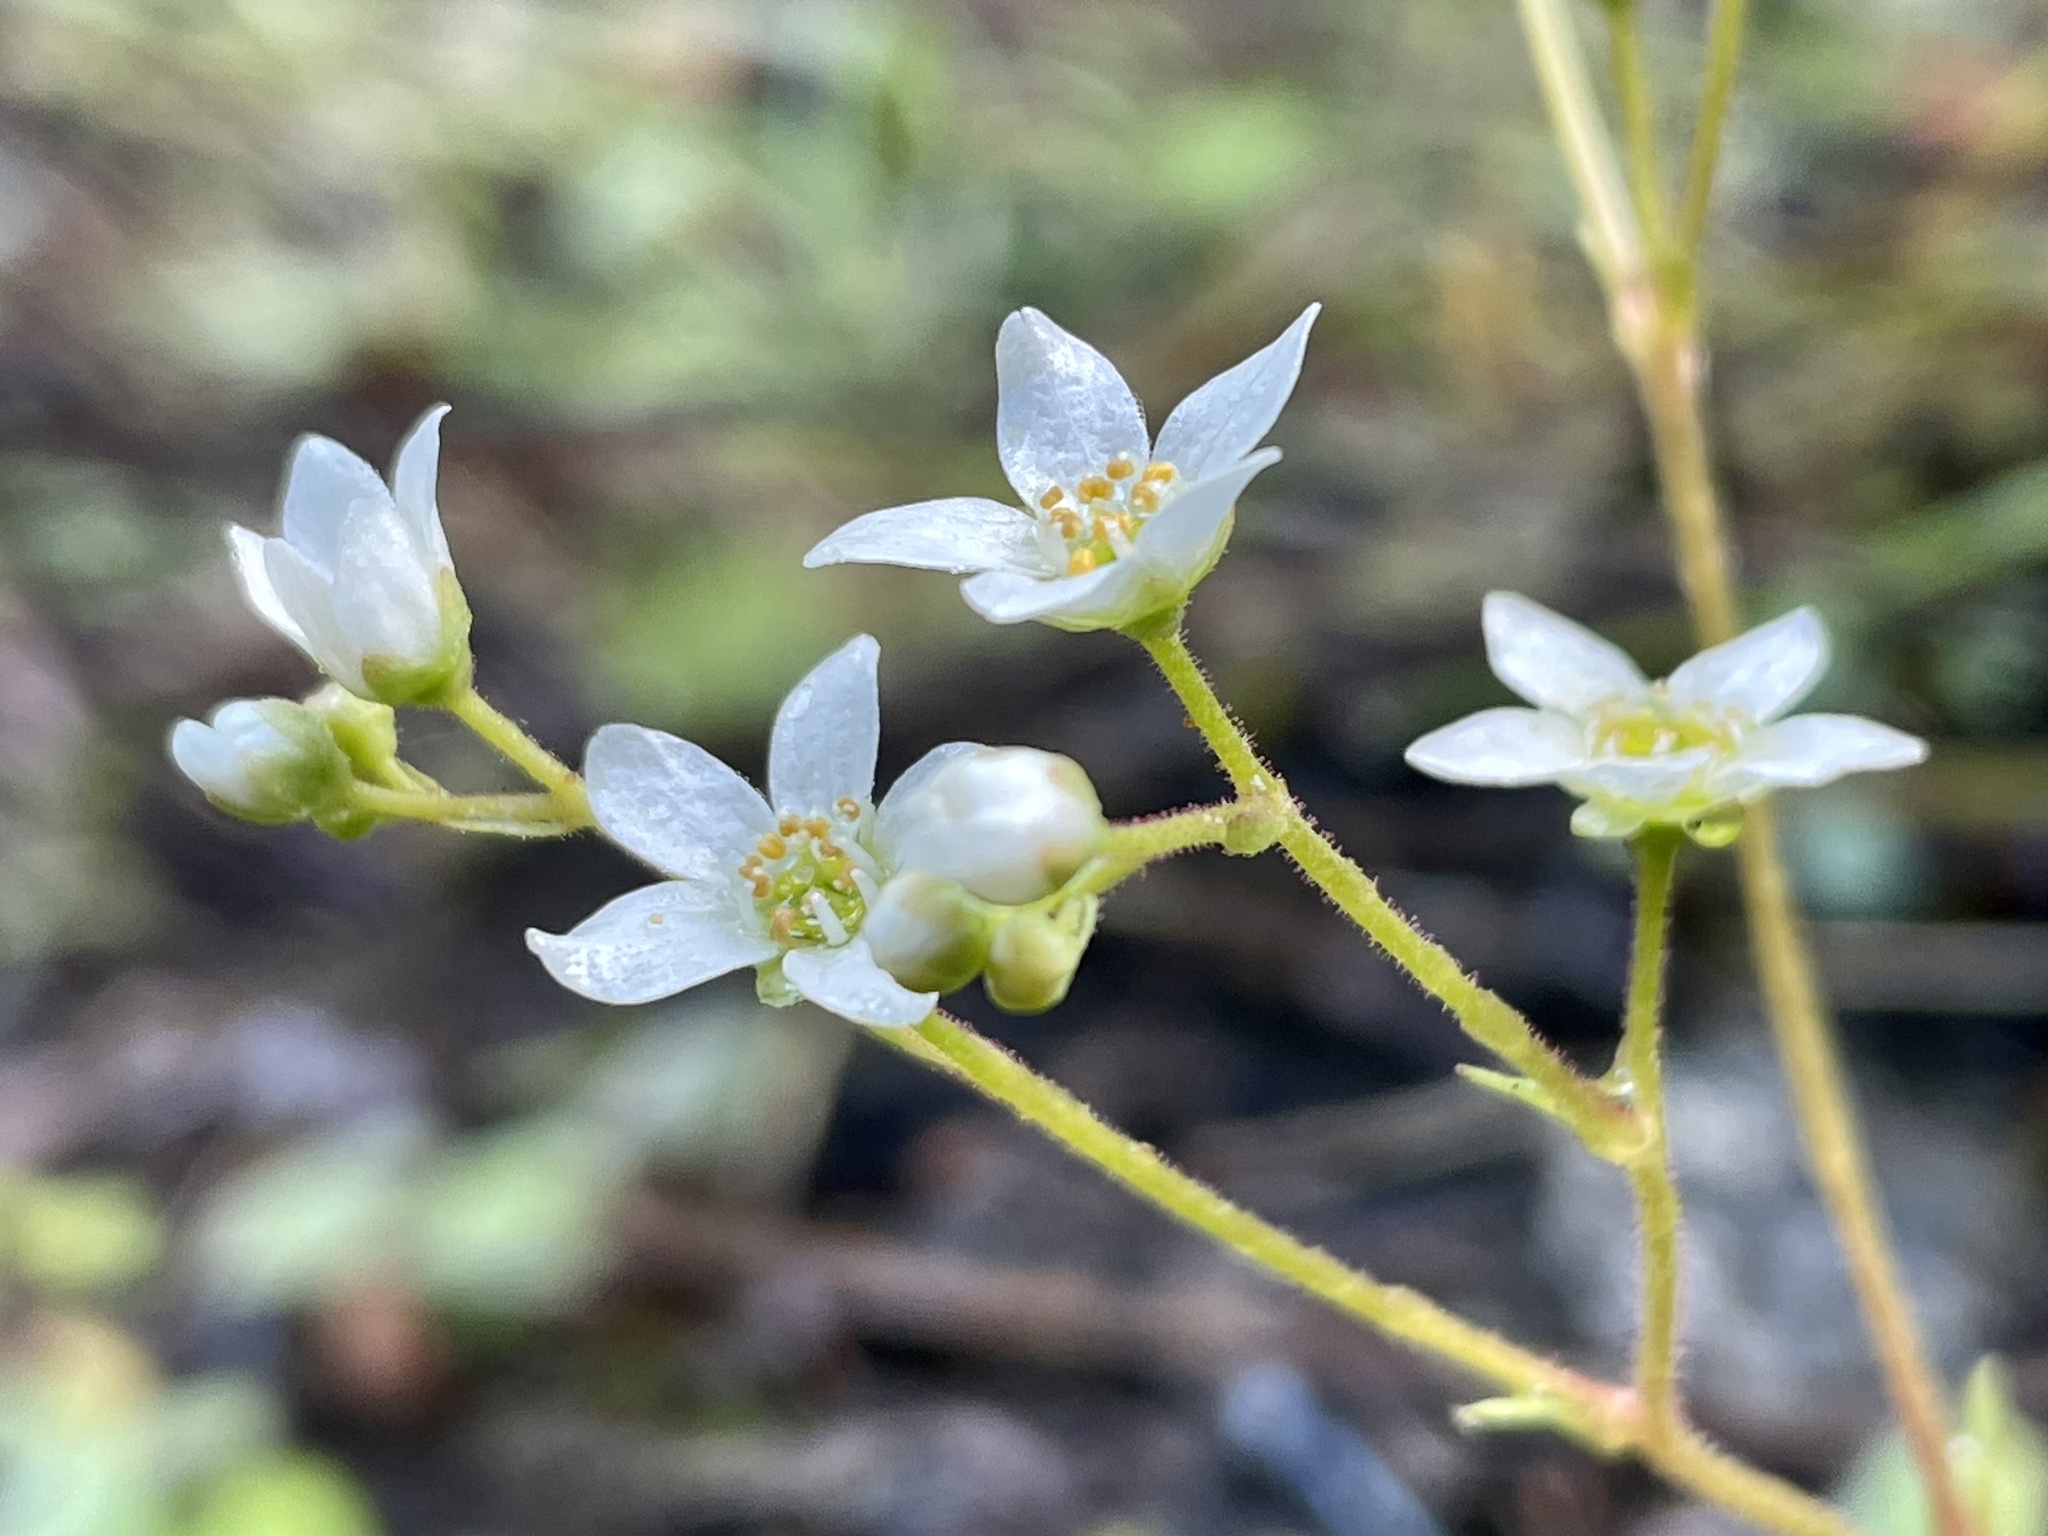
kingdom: Plantae
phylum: Tracheophyta
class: Magnoliopsida
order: Saxifragales
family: Saxifragaceae
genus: Micranthes
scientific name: Micranthes californica
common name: California saxifrage
